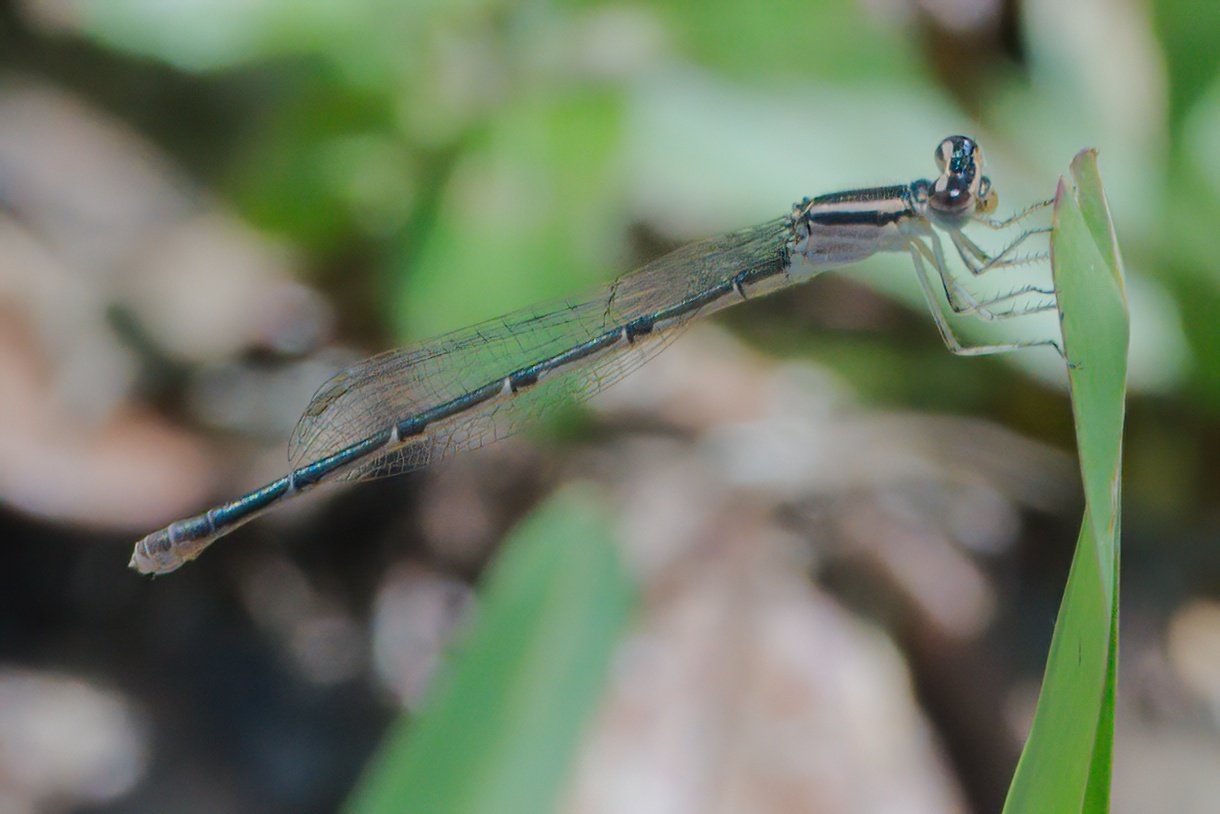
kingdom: Animalia
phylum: Arthropoda
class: Insecta
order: Odonata
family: Coenagrionidae
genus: Enallagma
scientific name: Enallagma doubledayi
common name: Atlantic bluet
